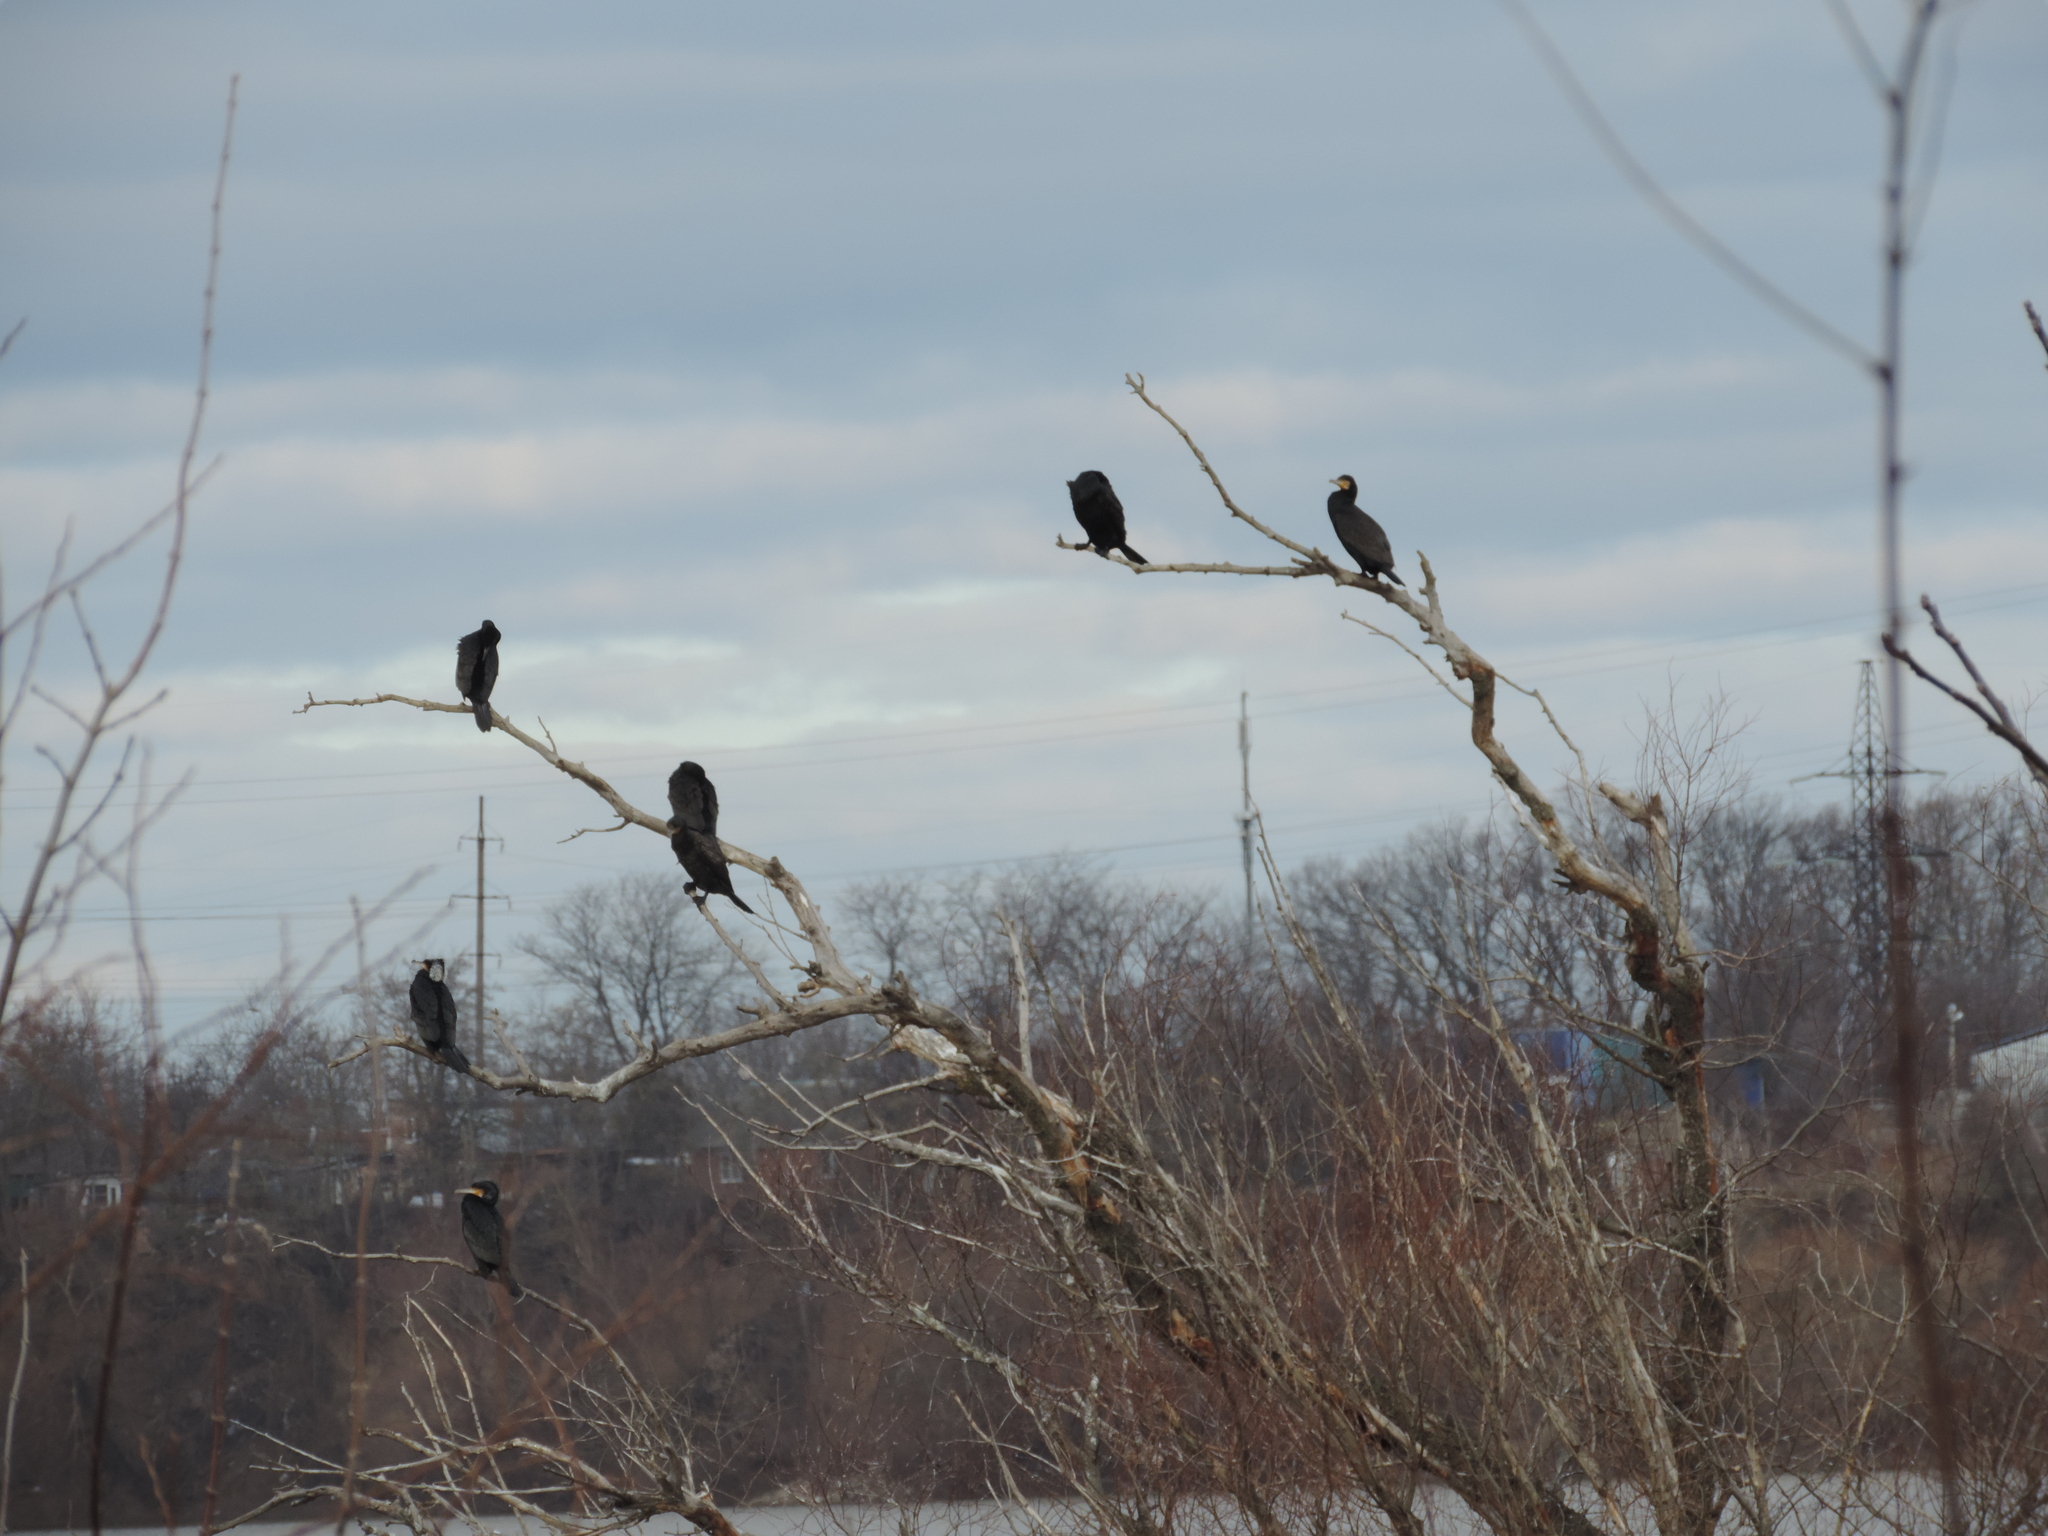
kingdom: Animalia
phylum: Chordata
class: Aves
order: Suliformes
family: Phalacrocoracidae
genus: Phalacrocorax
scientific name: Phalacrocorax carbo
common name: Great cormorant
